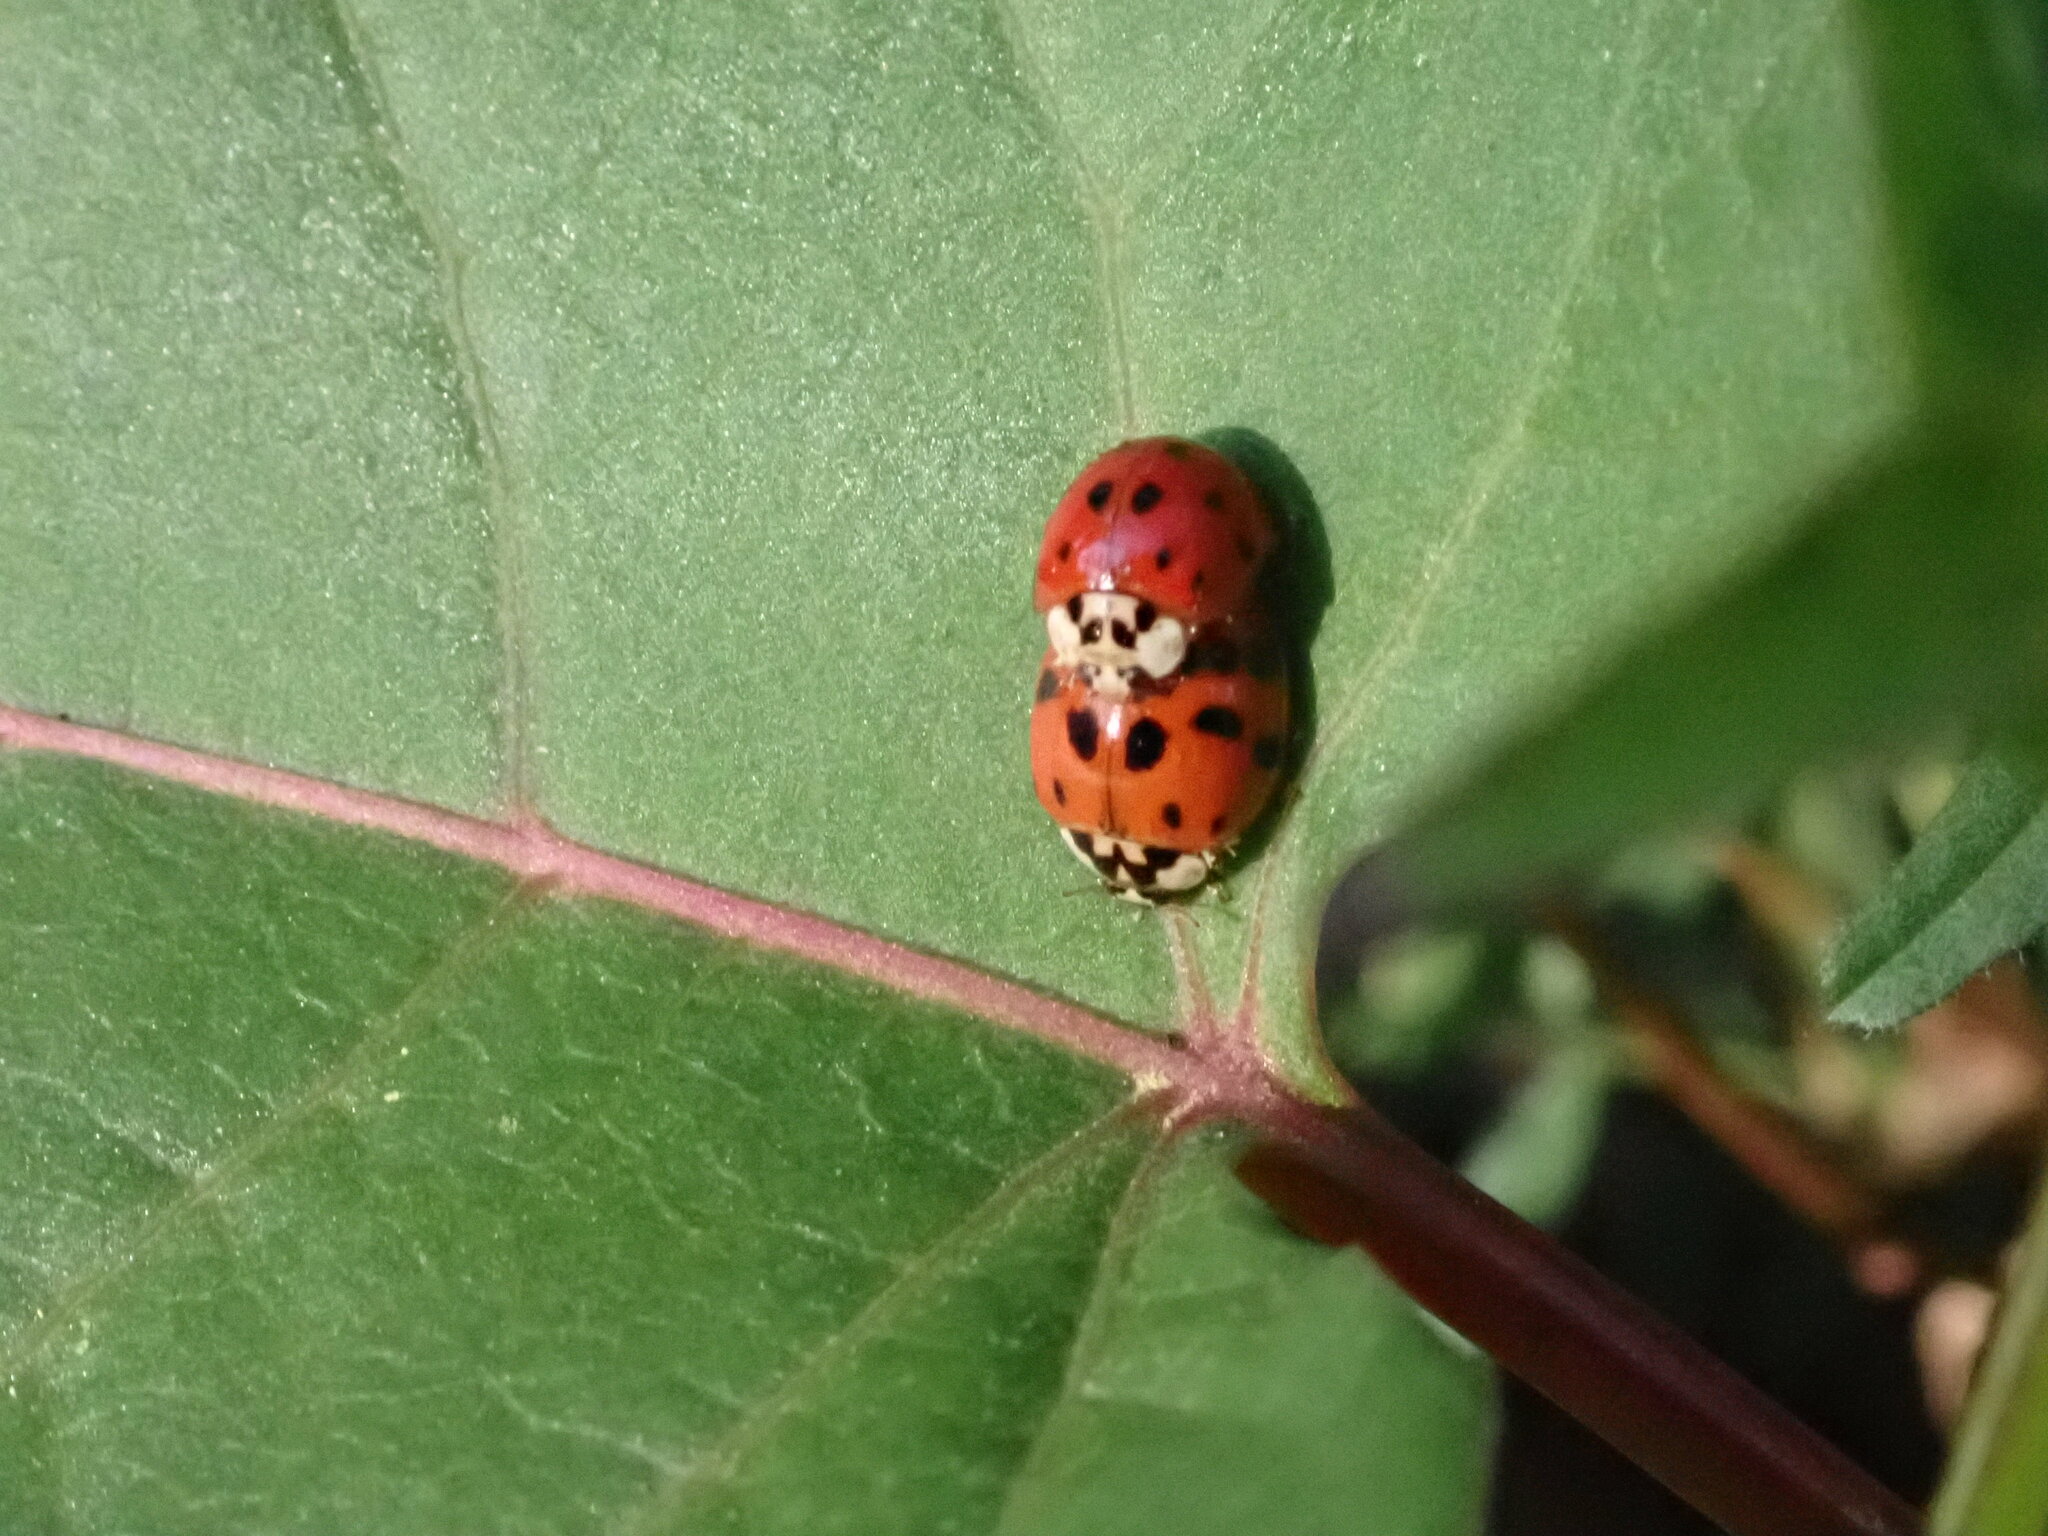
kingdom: Animalia
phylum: Arthropoda
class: Insecta
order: Coleoptera
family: Coccinellidae
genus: Harmonia
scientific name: Harmonia axyridis
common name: Harlequin ladybird
